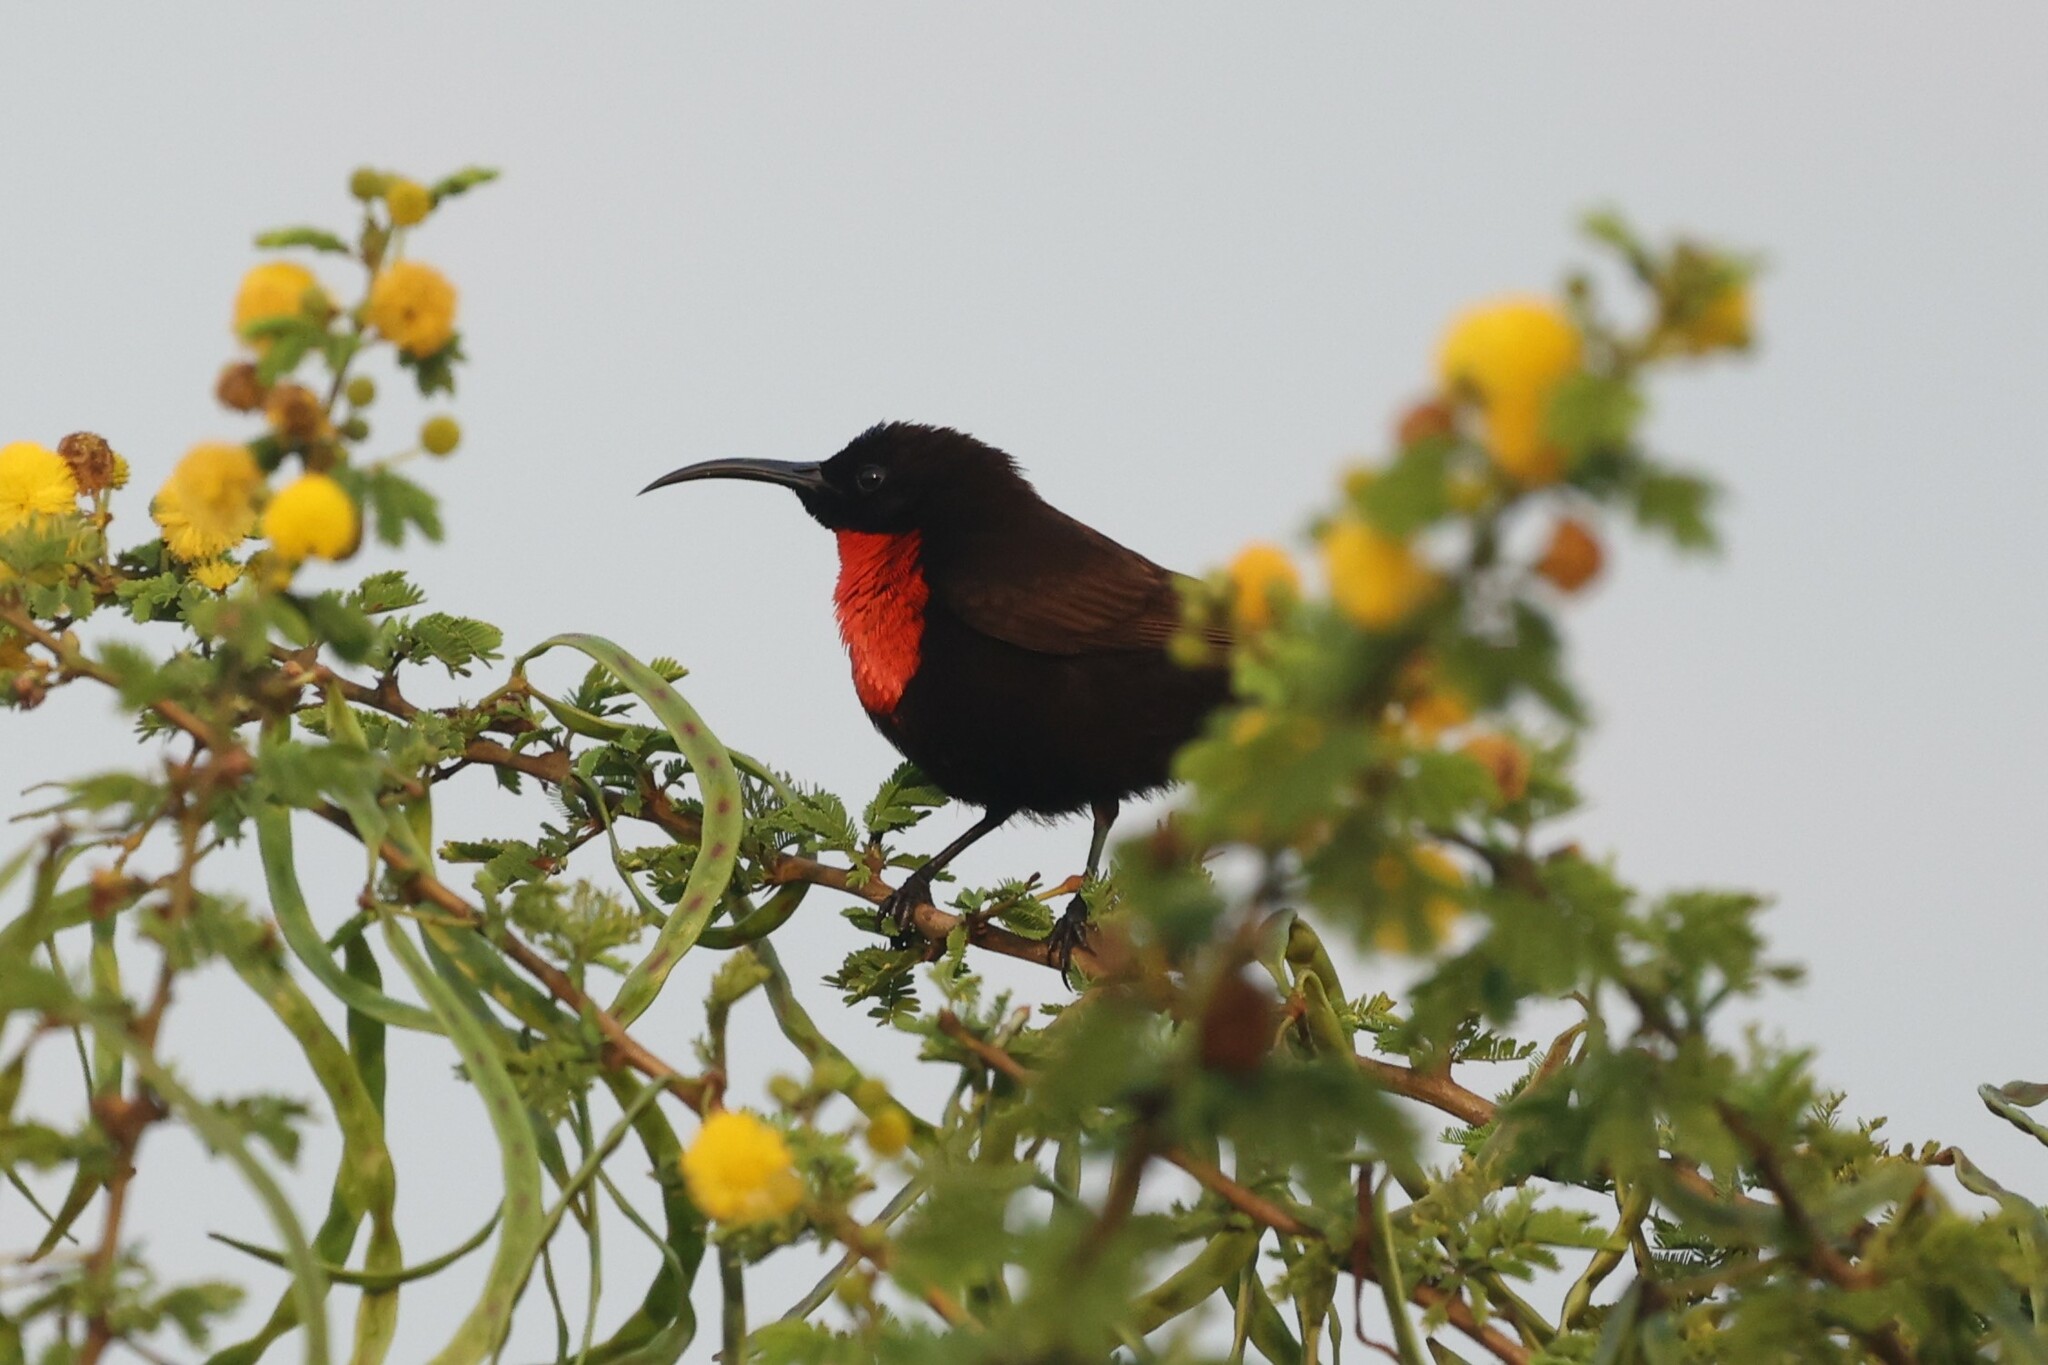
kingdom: Animalia
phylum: Chordata
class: Aves
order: Passeriformes
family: Nectariniidae
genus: Chalcomitra
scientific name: Chalcomitra senegalensis
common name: Scarlet-chested sunbird
